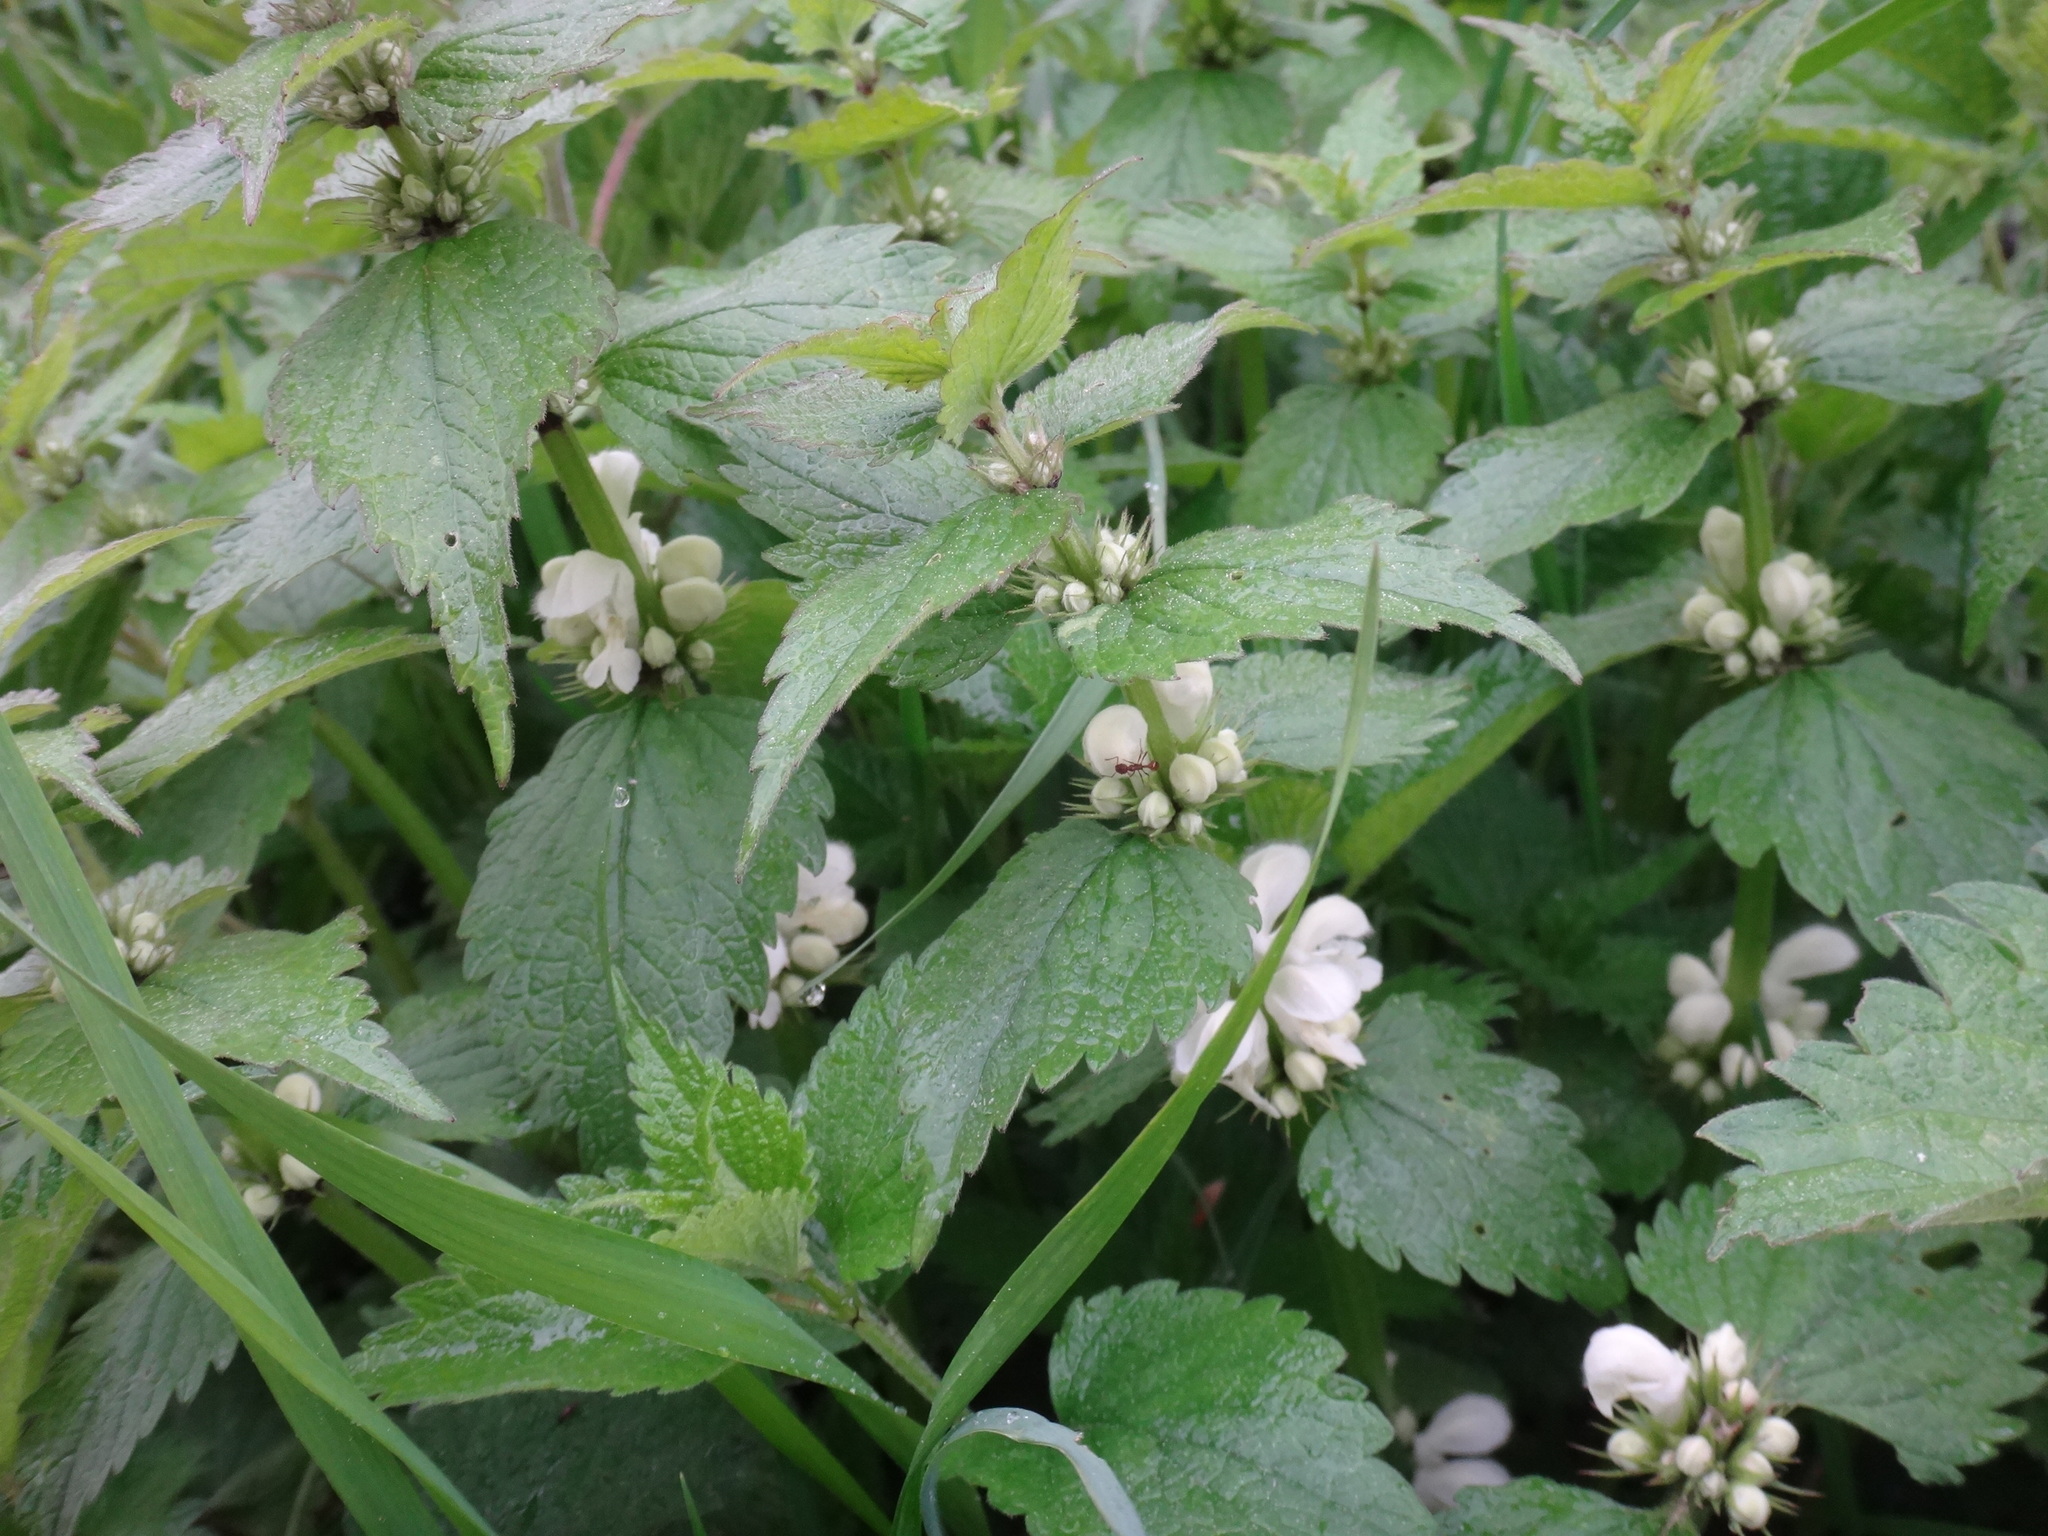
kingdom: Plantae
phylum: Tracheophyta
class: Magnoliopsida
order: Lamiales
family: Lamiaceae
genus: Lamium
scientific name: Lamium album
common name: White dead-nettle
